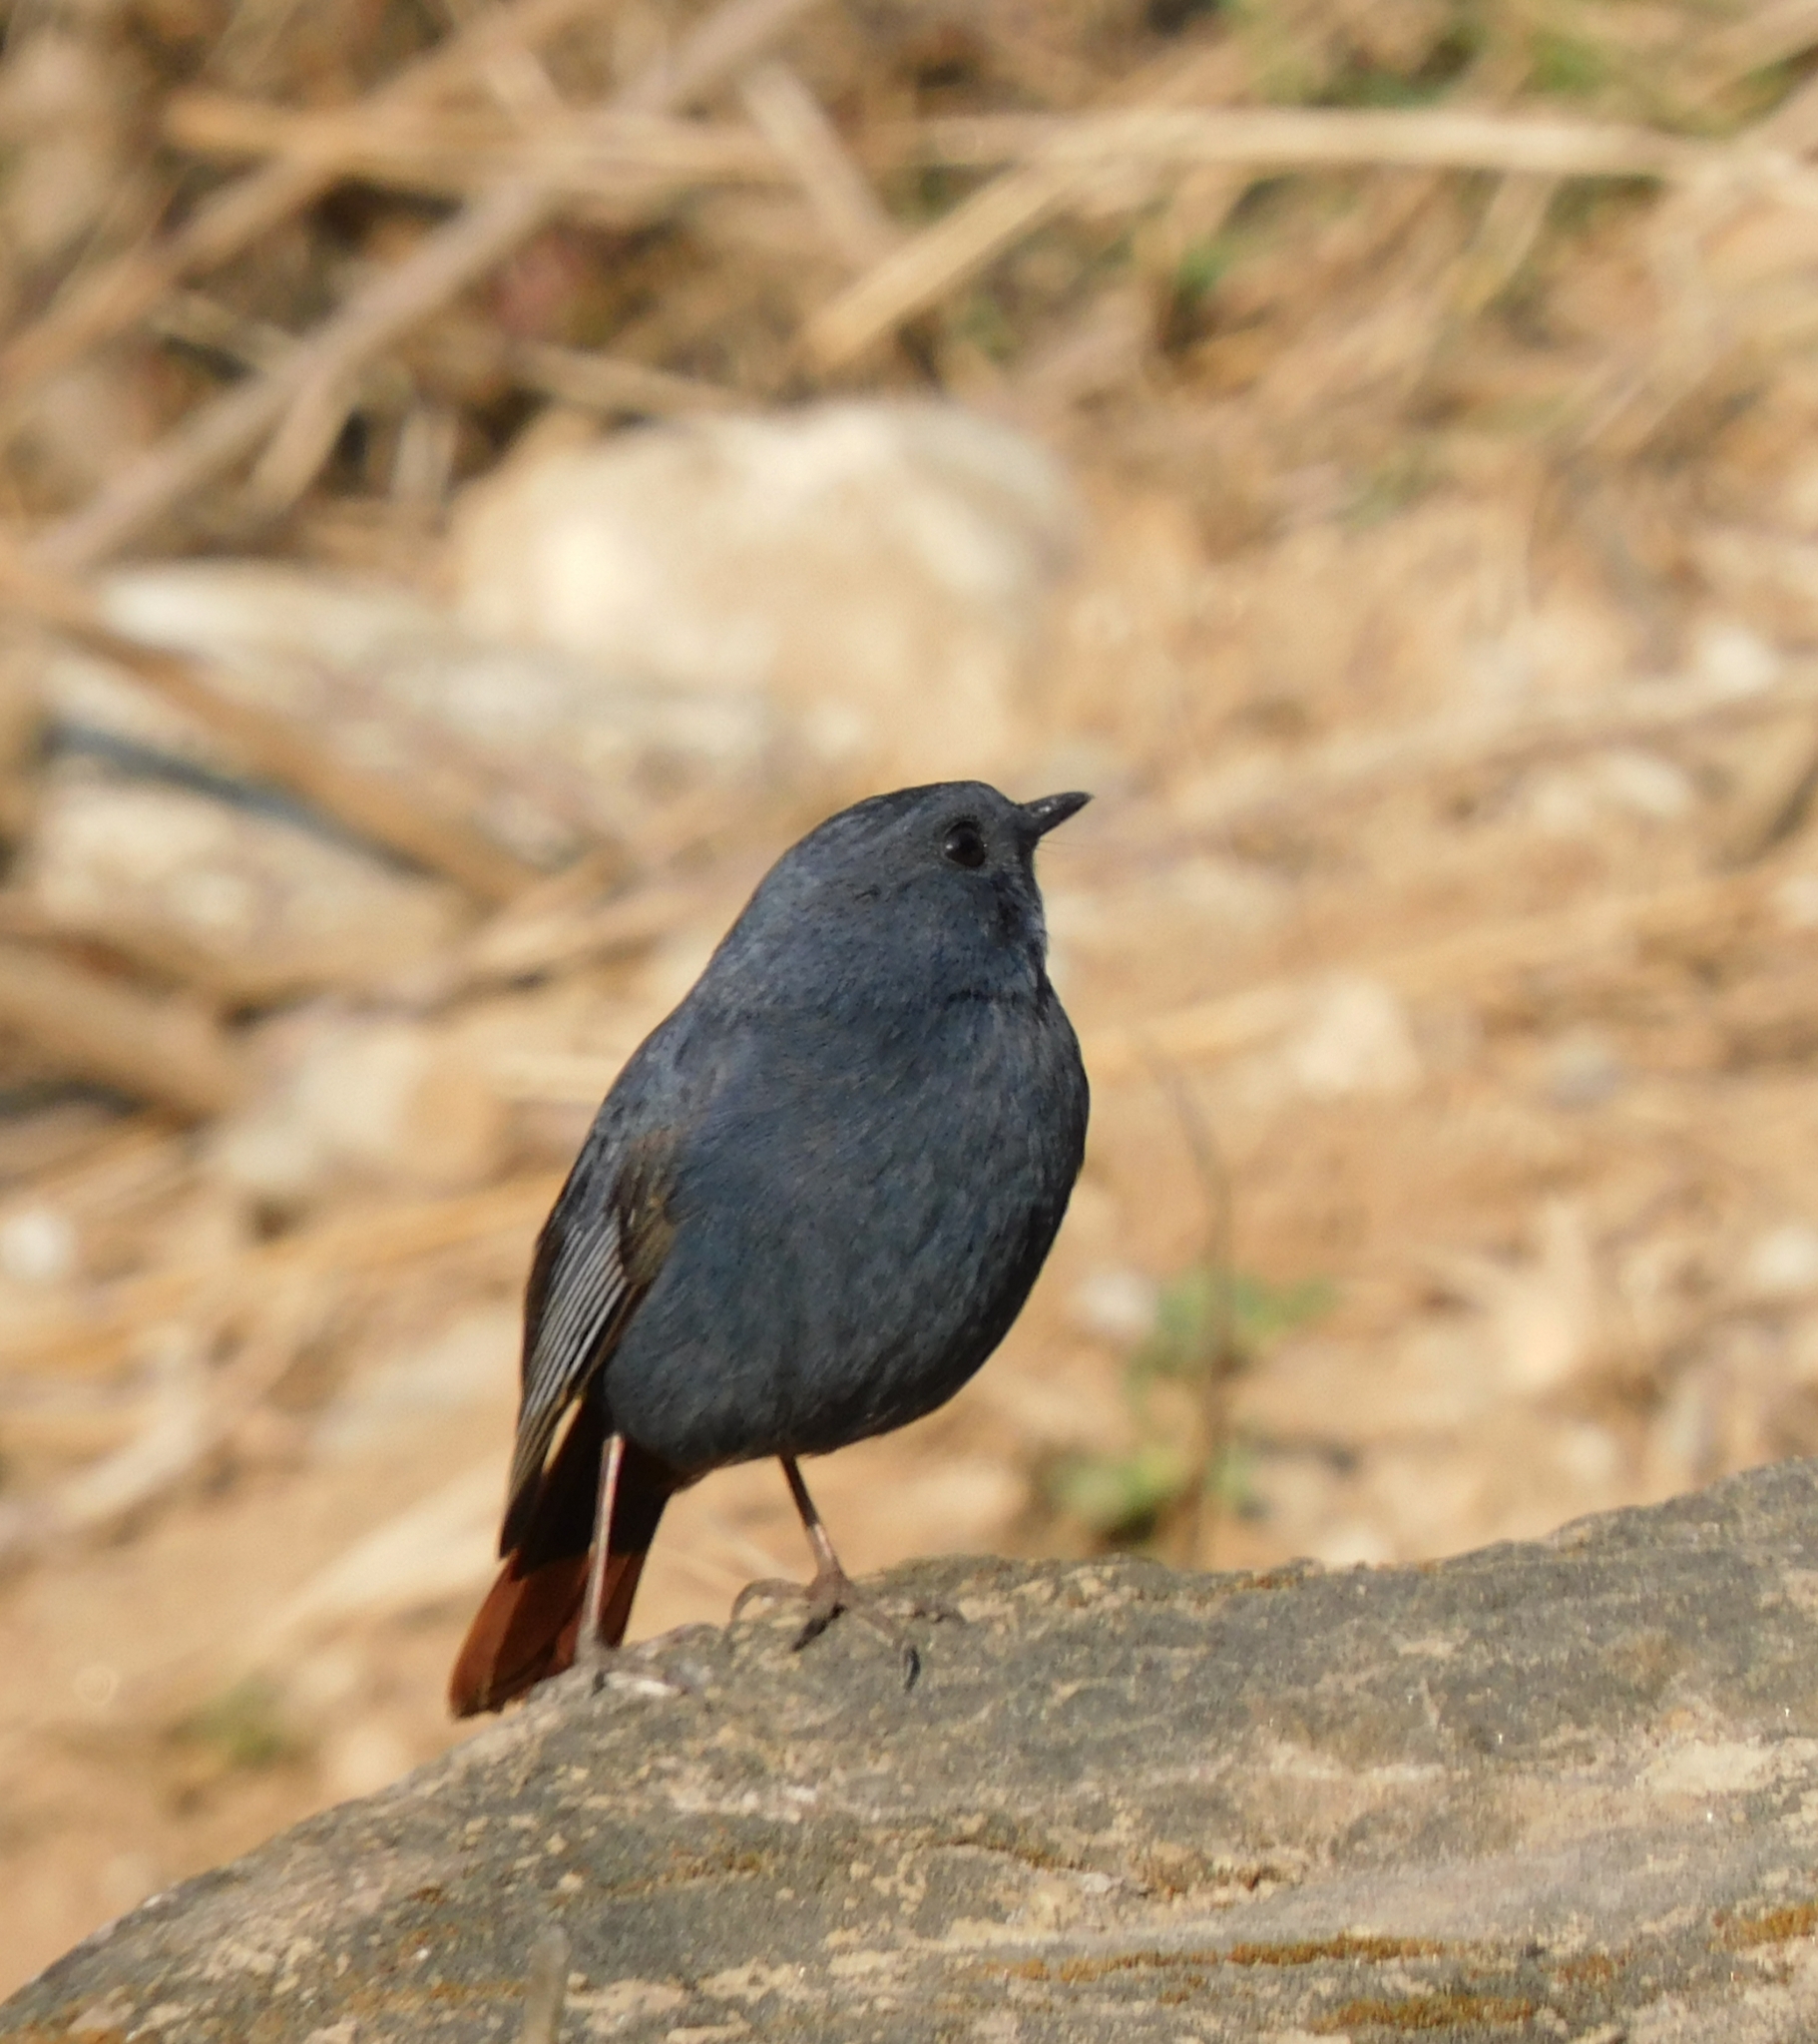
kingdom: Animalia
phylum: Chordata
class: Aves
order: Passeriformes
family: Muscicapidae
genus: Phoenicurus
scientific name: Phoenicurus fuliginosus
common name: Plumbeous water redstart
